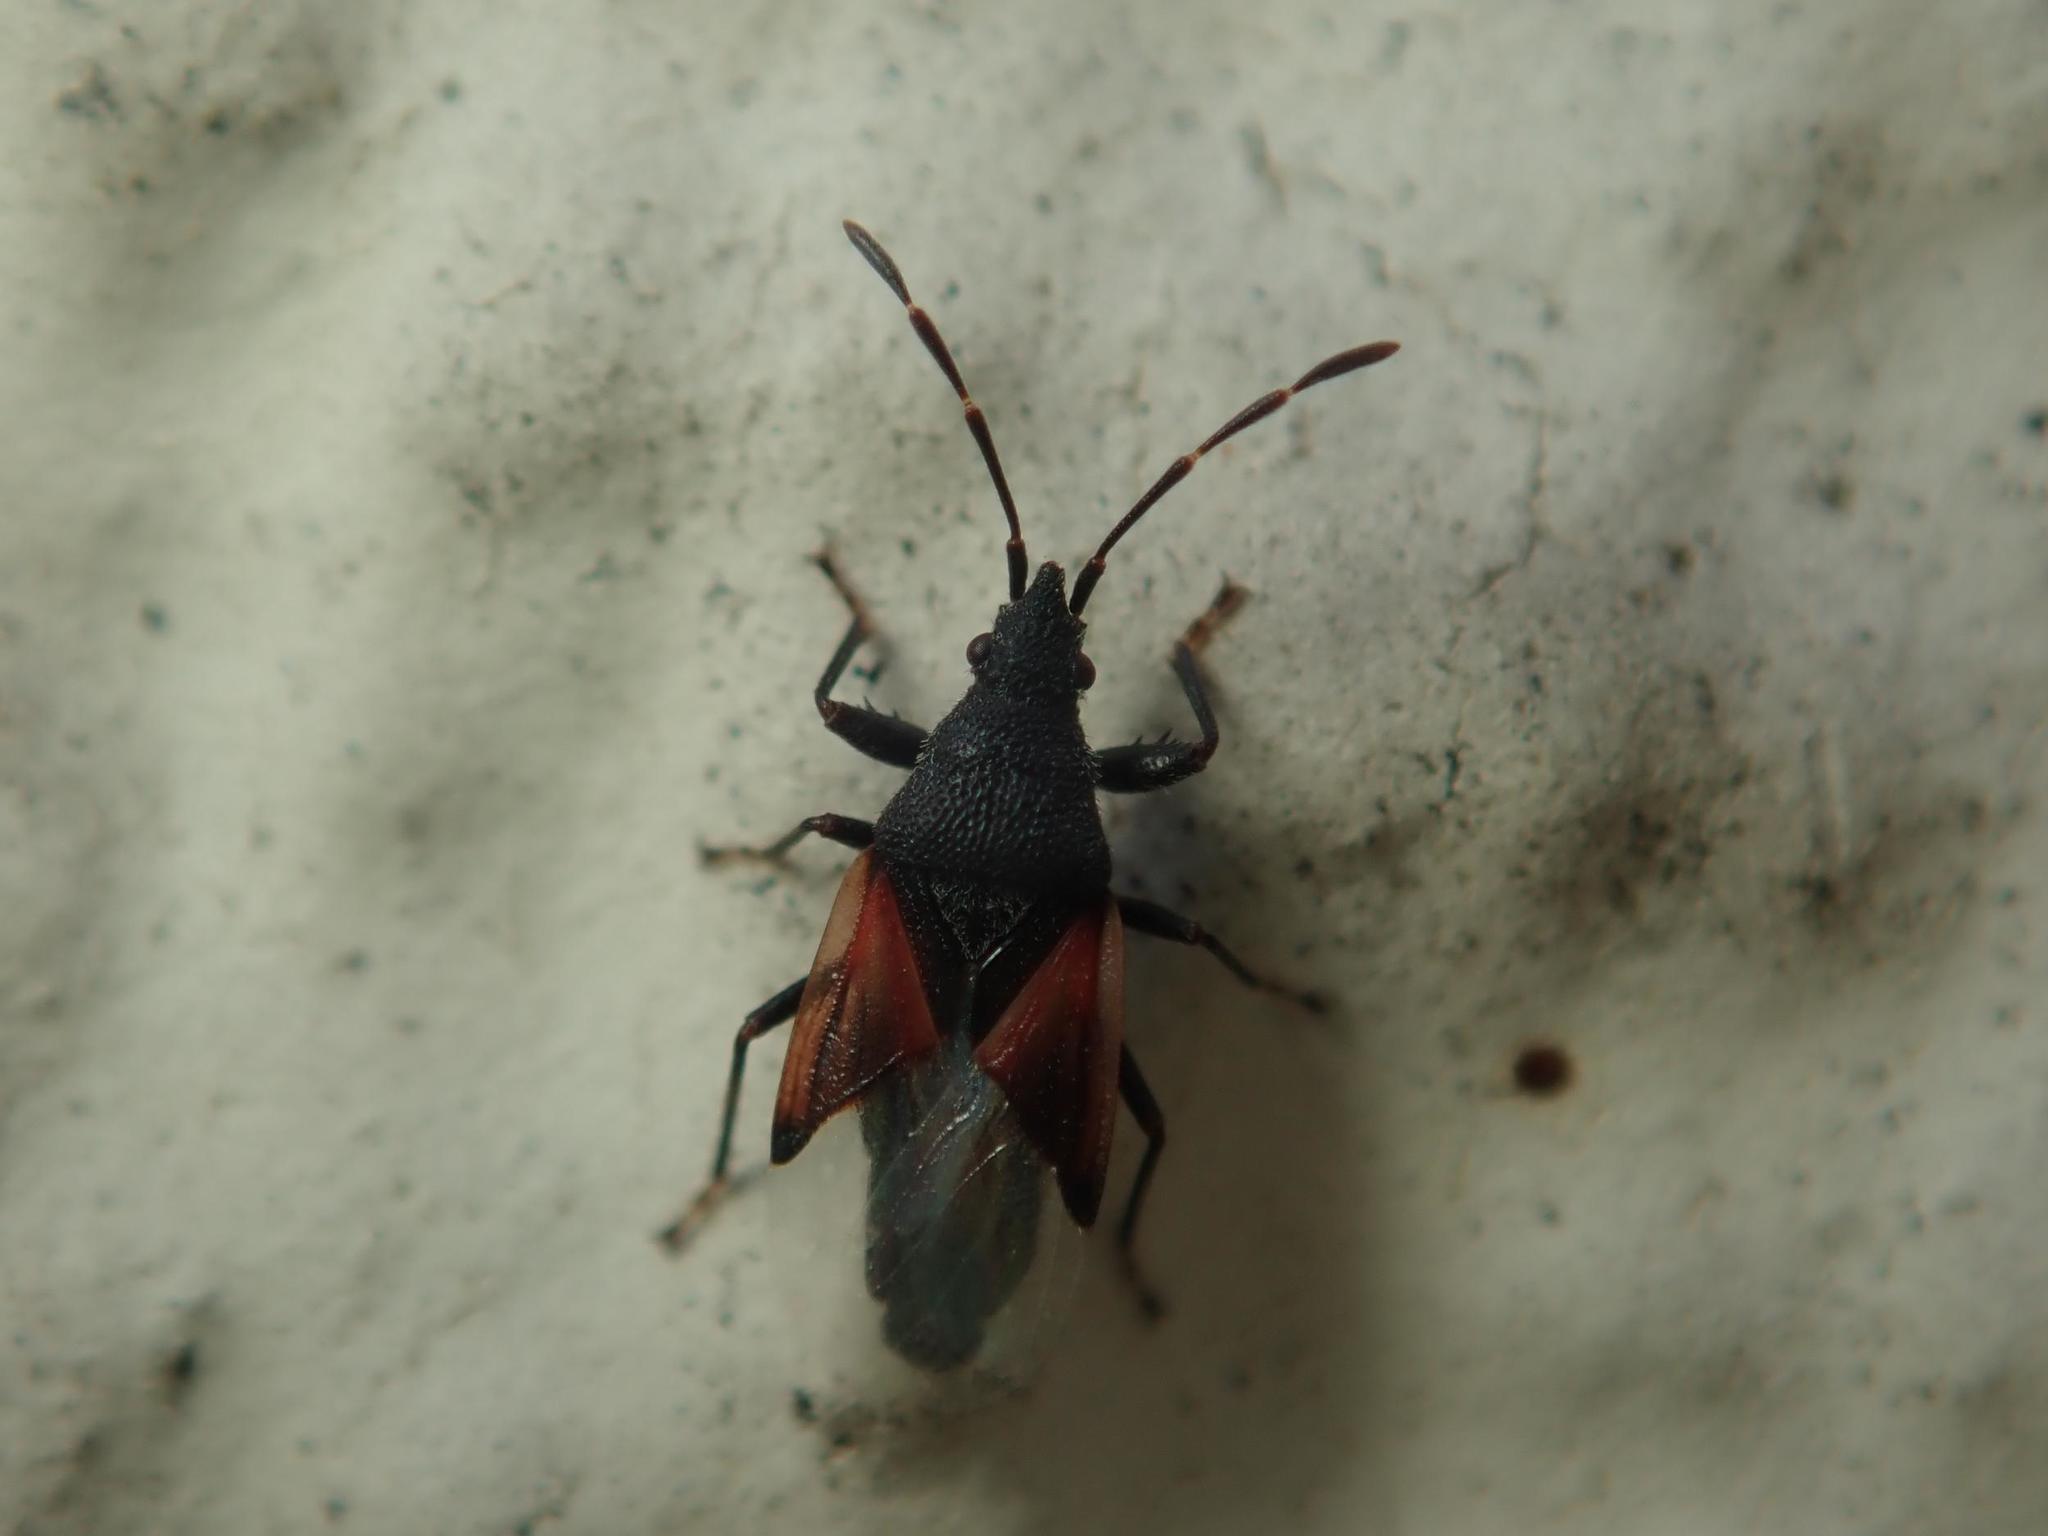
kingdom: Animalia
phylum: Arthropoda
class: Insecta
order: Hemiptera
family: Oxycarenidae
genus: Oxycarenus
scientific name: Oxycarenus lavaterae
